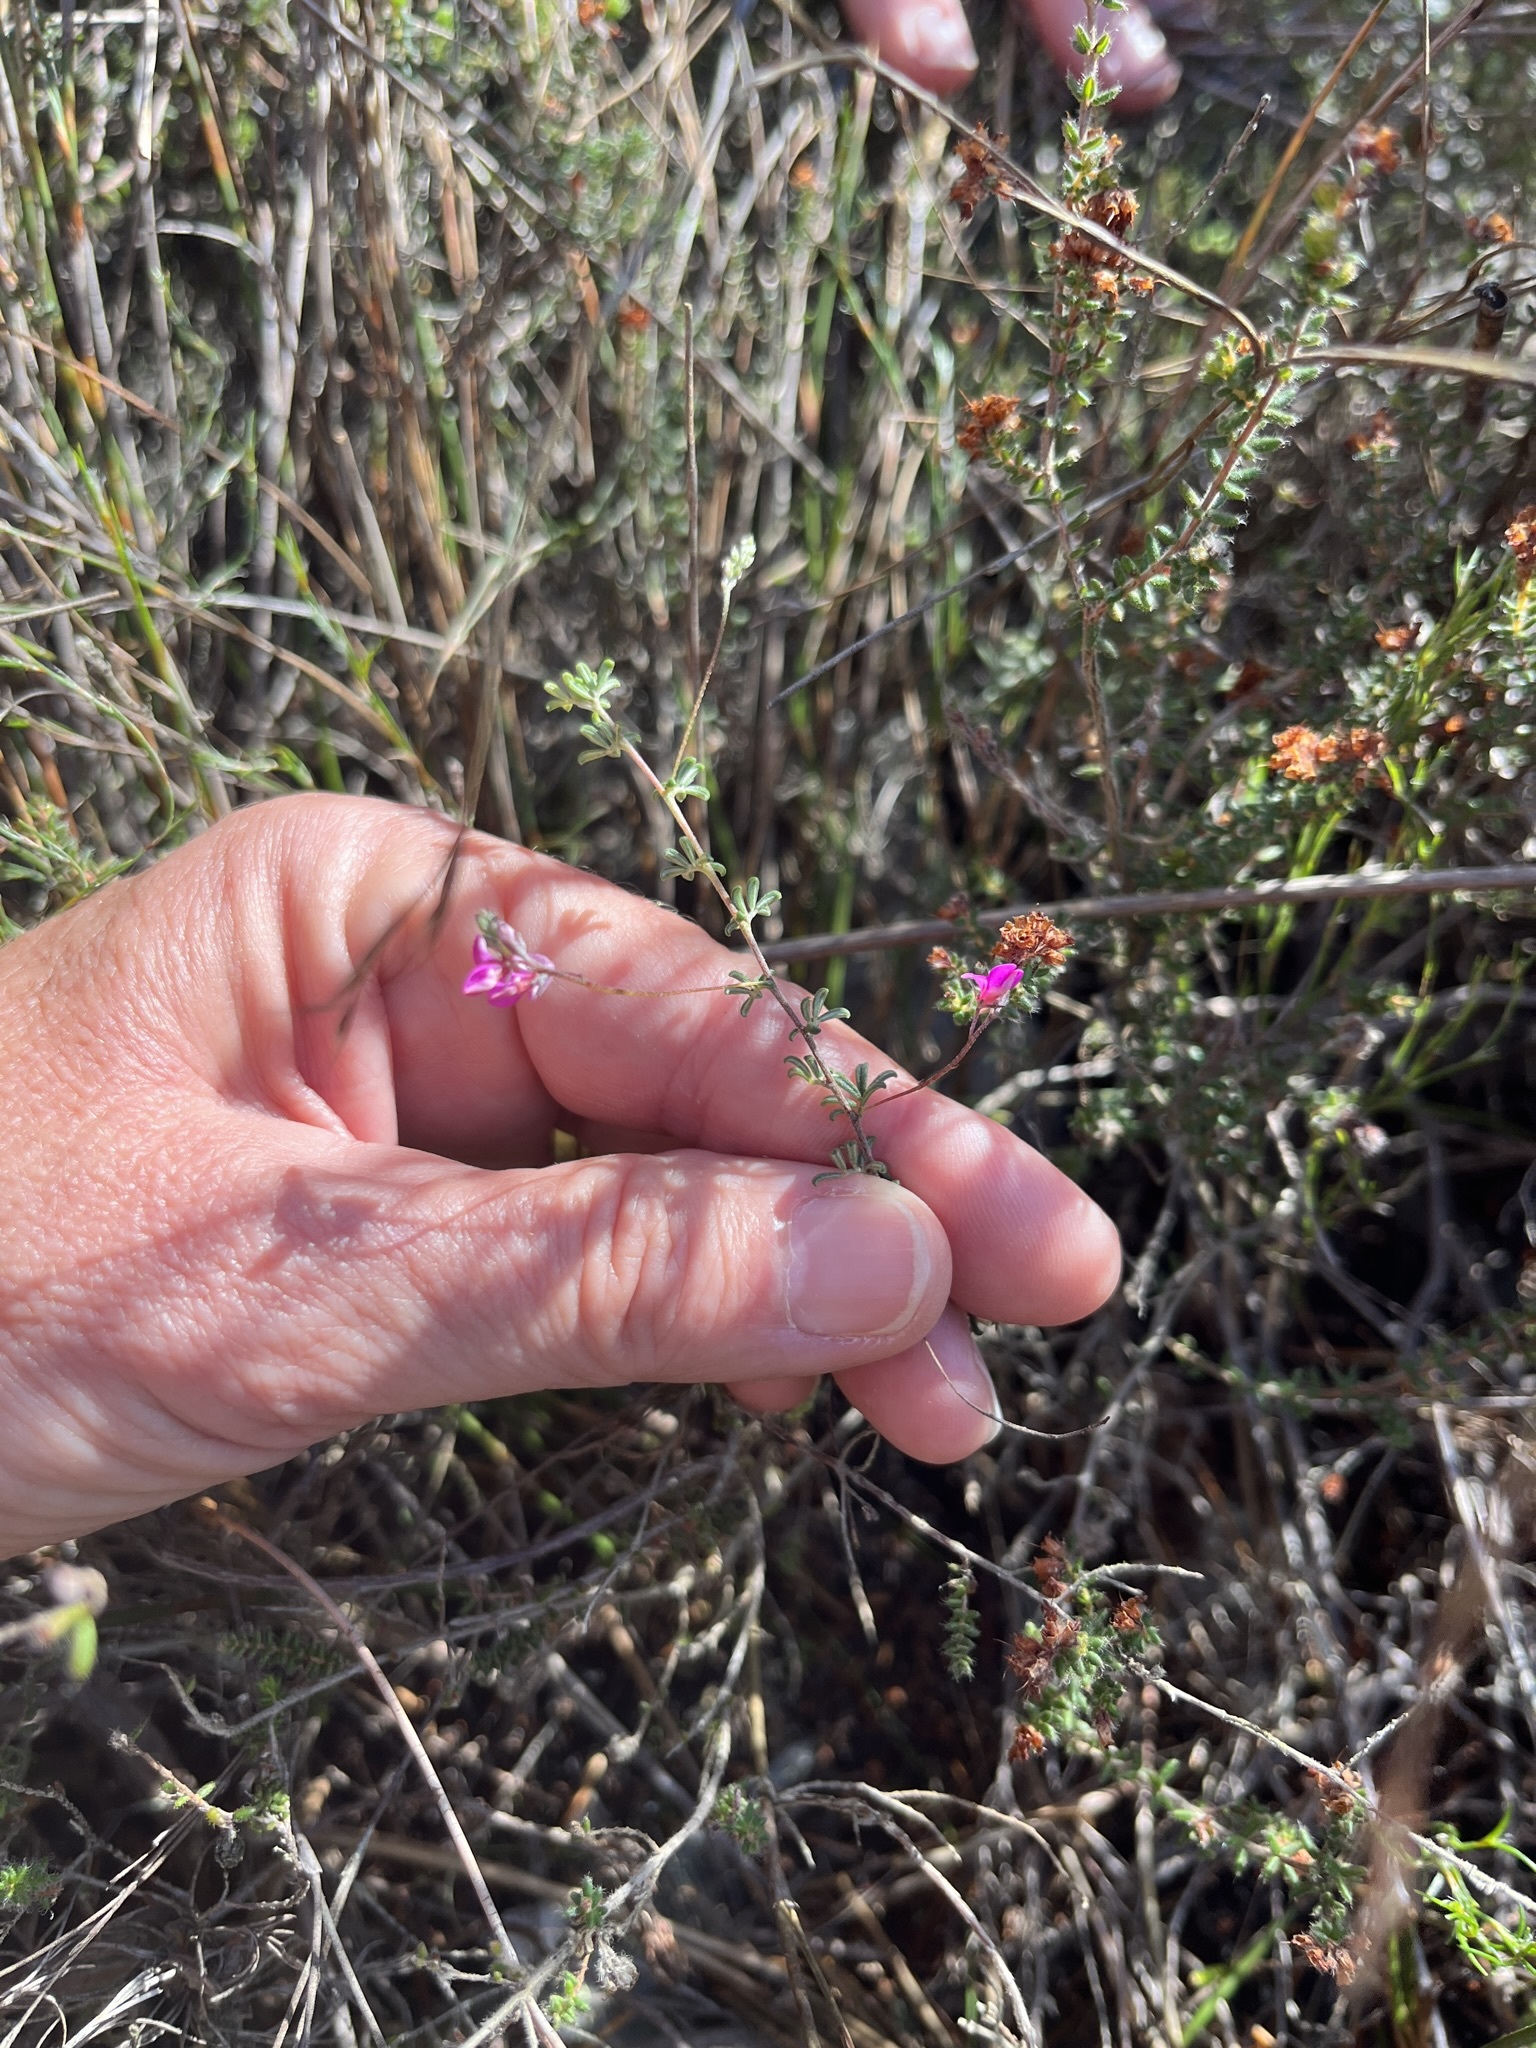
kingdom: Plantae
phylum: Tracheophyta
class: Magnoliopsida
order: Fabales
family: Fabaceae
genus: Indigofera
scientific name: Indigofera alopecuroides
